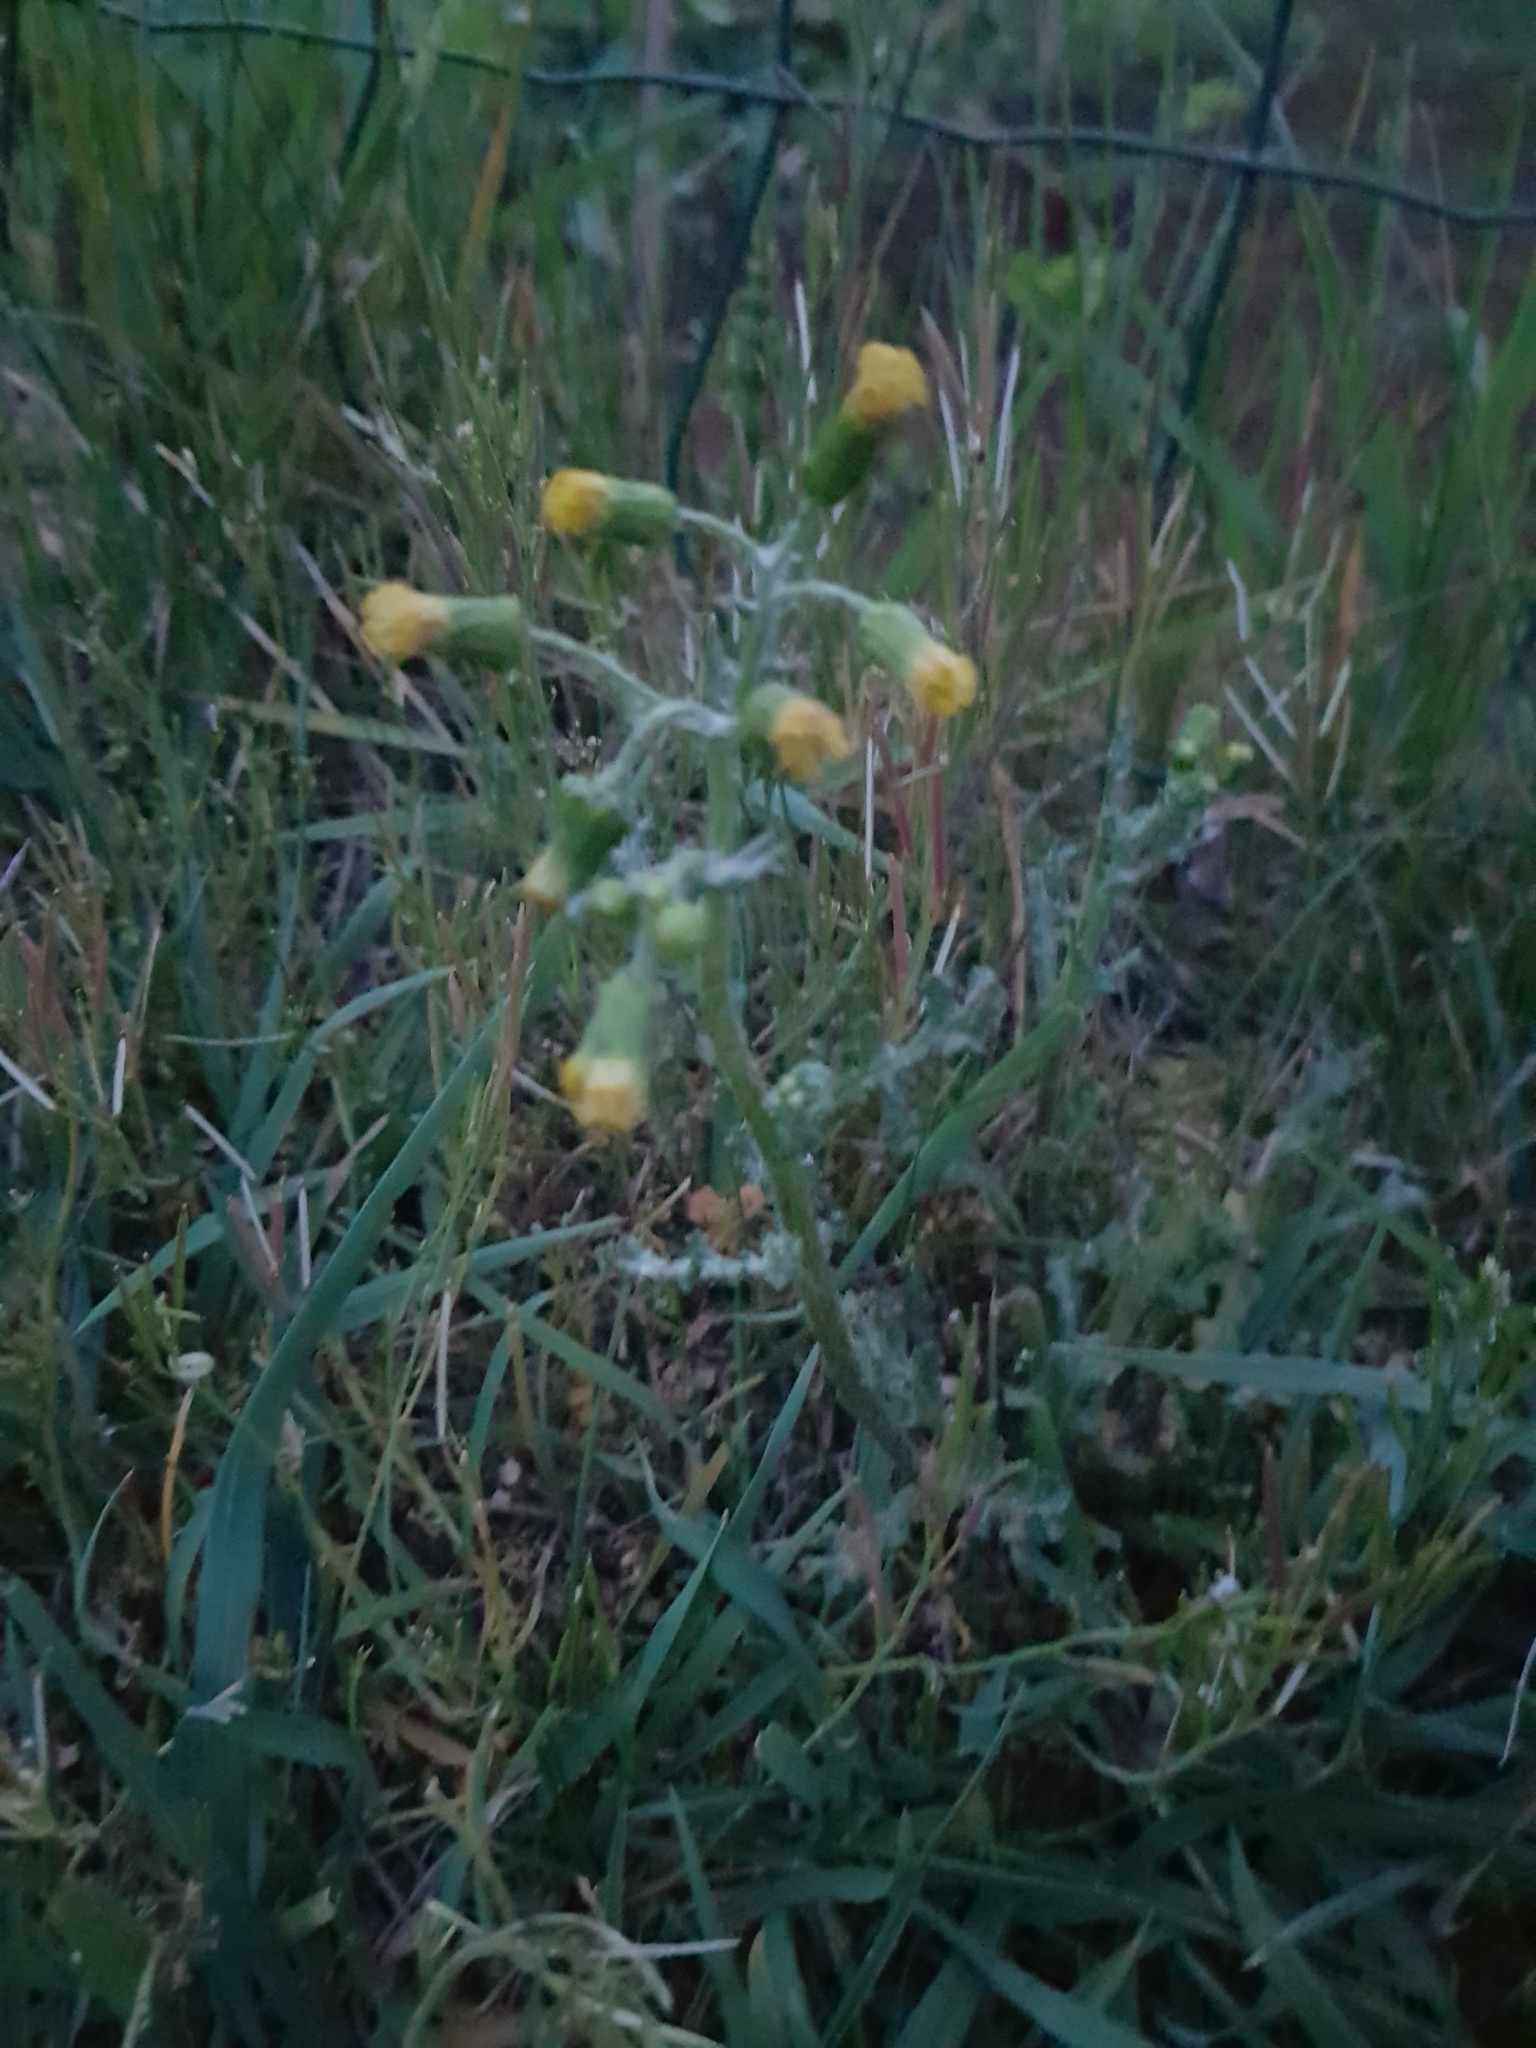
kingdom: Plantae
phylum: Tracheophyta
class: Magnoliopsida
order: Asterales
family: Asteraceae
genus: Senecio
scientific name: Senecio vulgaris
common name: Old-man-in-the-spring
